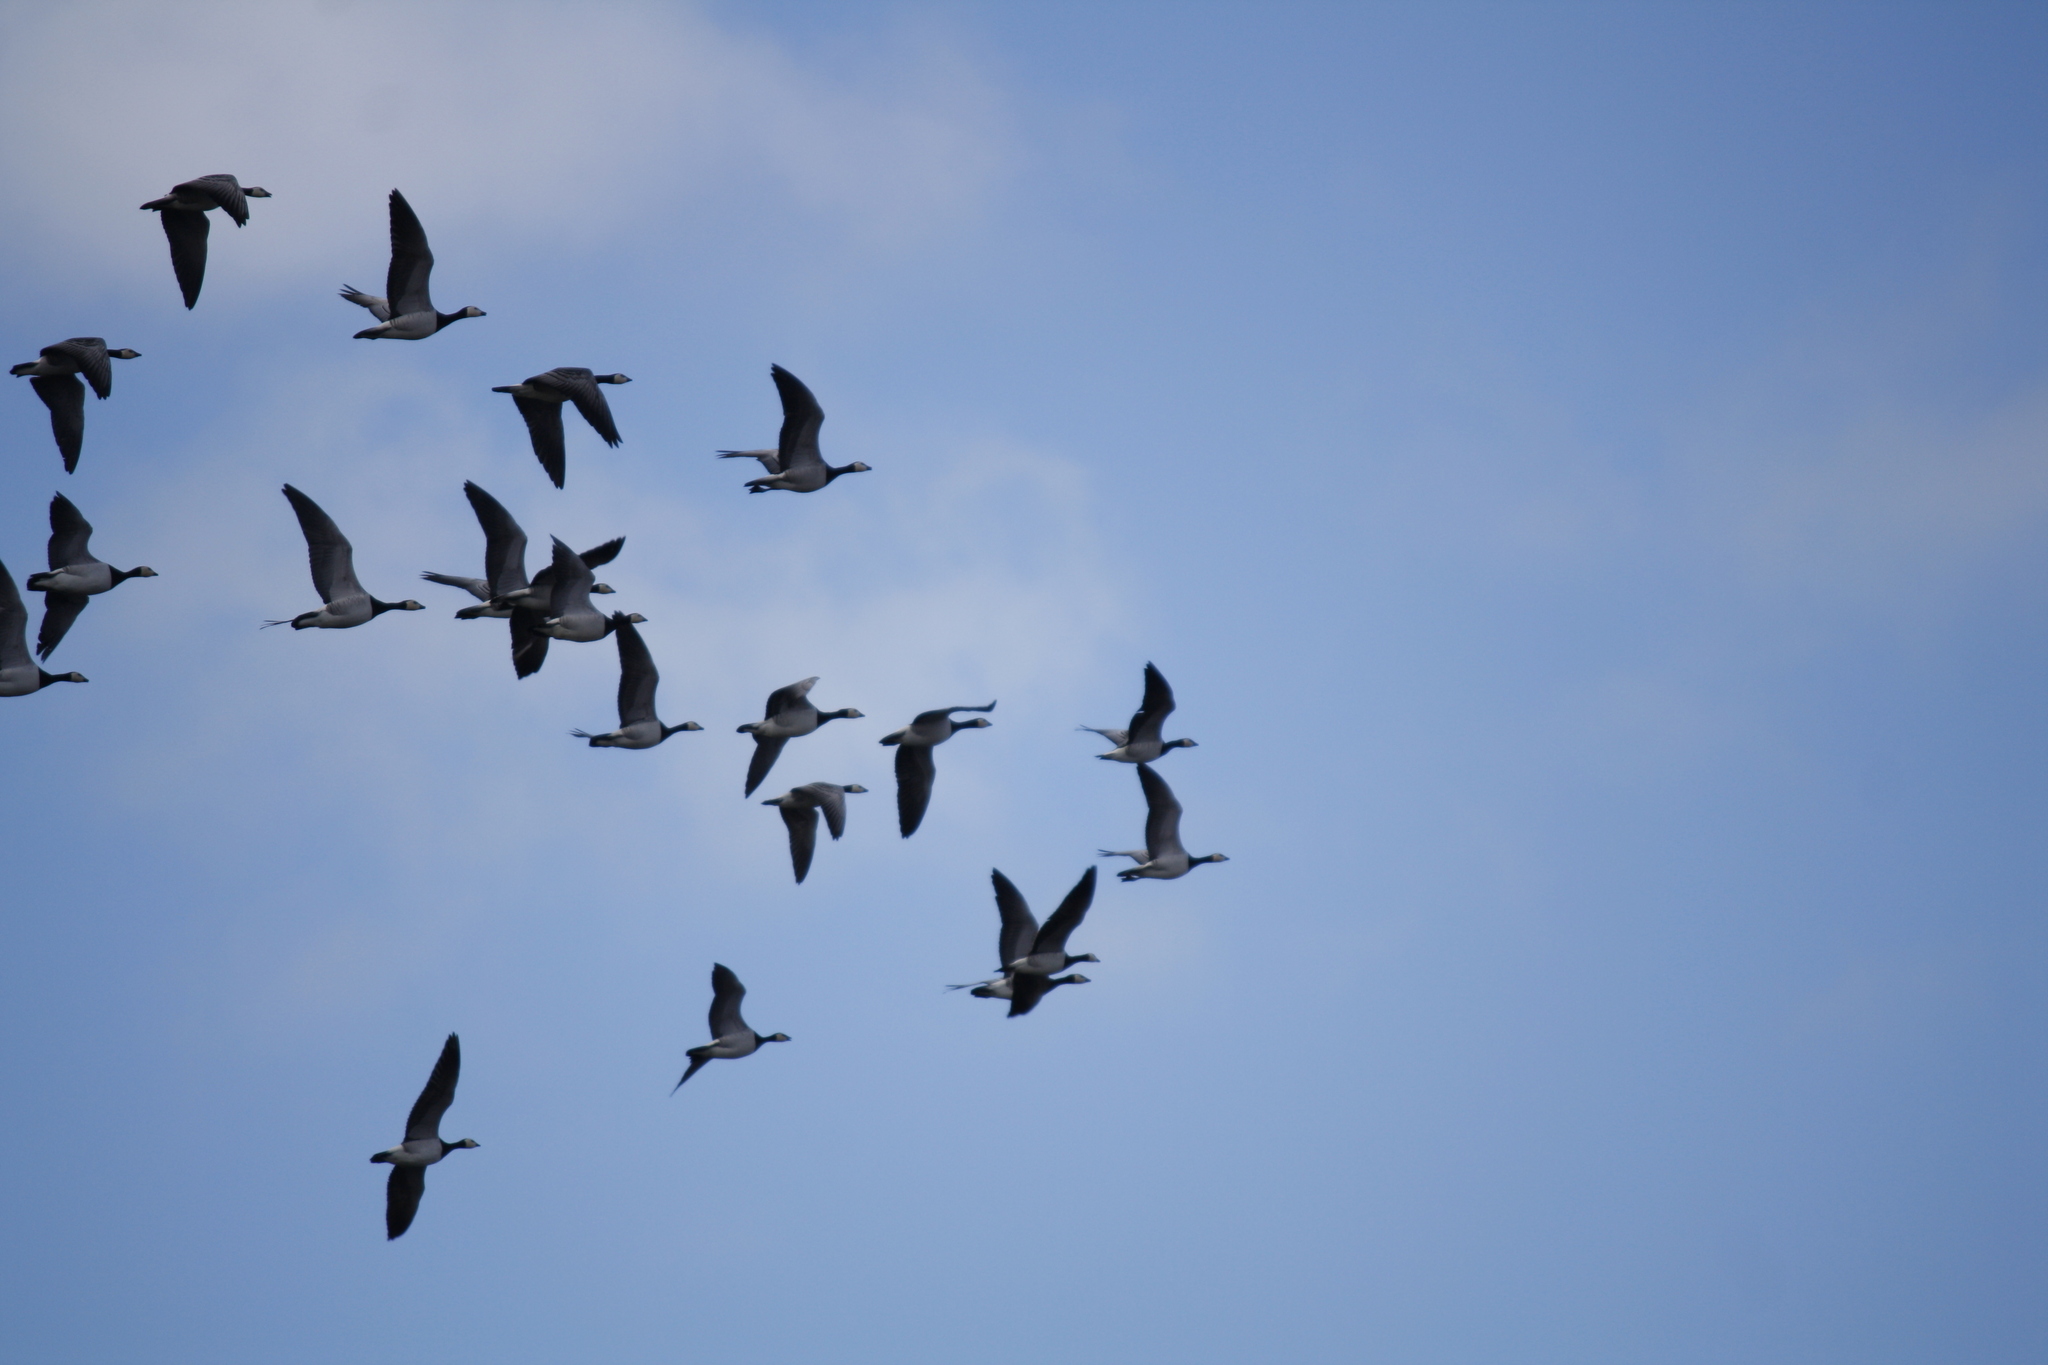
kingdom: Animalia
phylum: Chordata
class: Aves
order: Anseriformes
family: Anatidae
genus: Branta
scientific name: Branta leucopsis
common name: Barnacle goose
